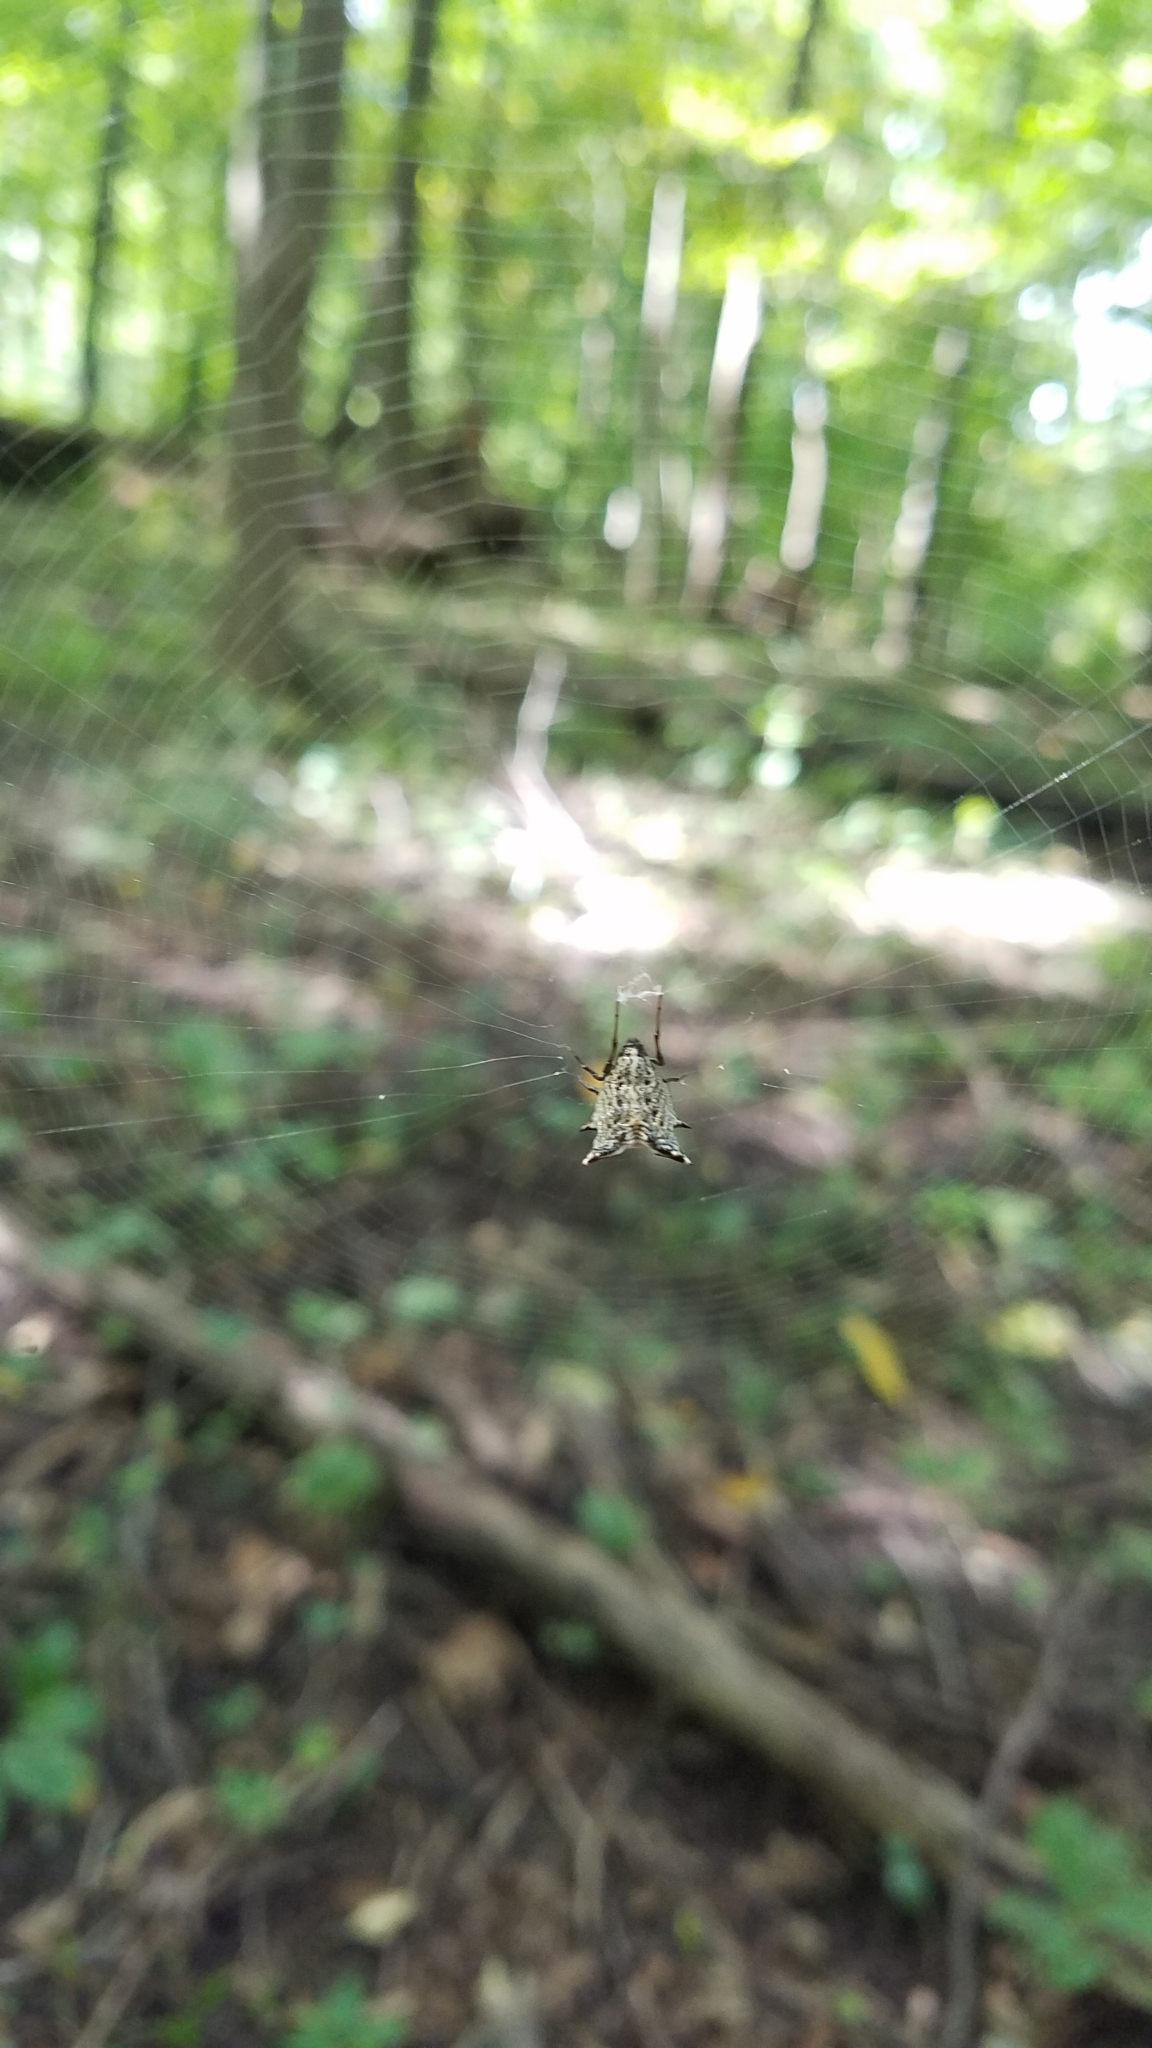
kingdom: Animalia
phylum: Arthropoda
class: Arachnida
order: Araneae
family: Araneidae
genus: Micrathena
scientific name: Micrathena gracilis
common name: Orb weavers
